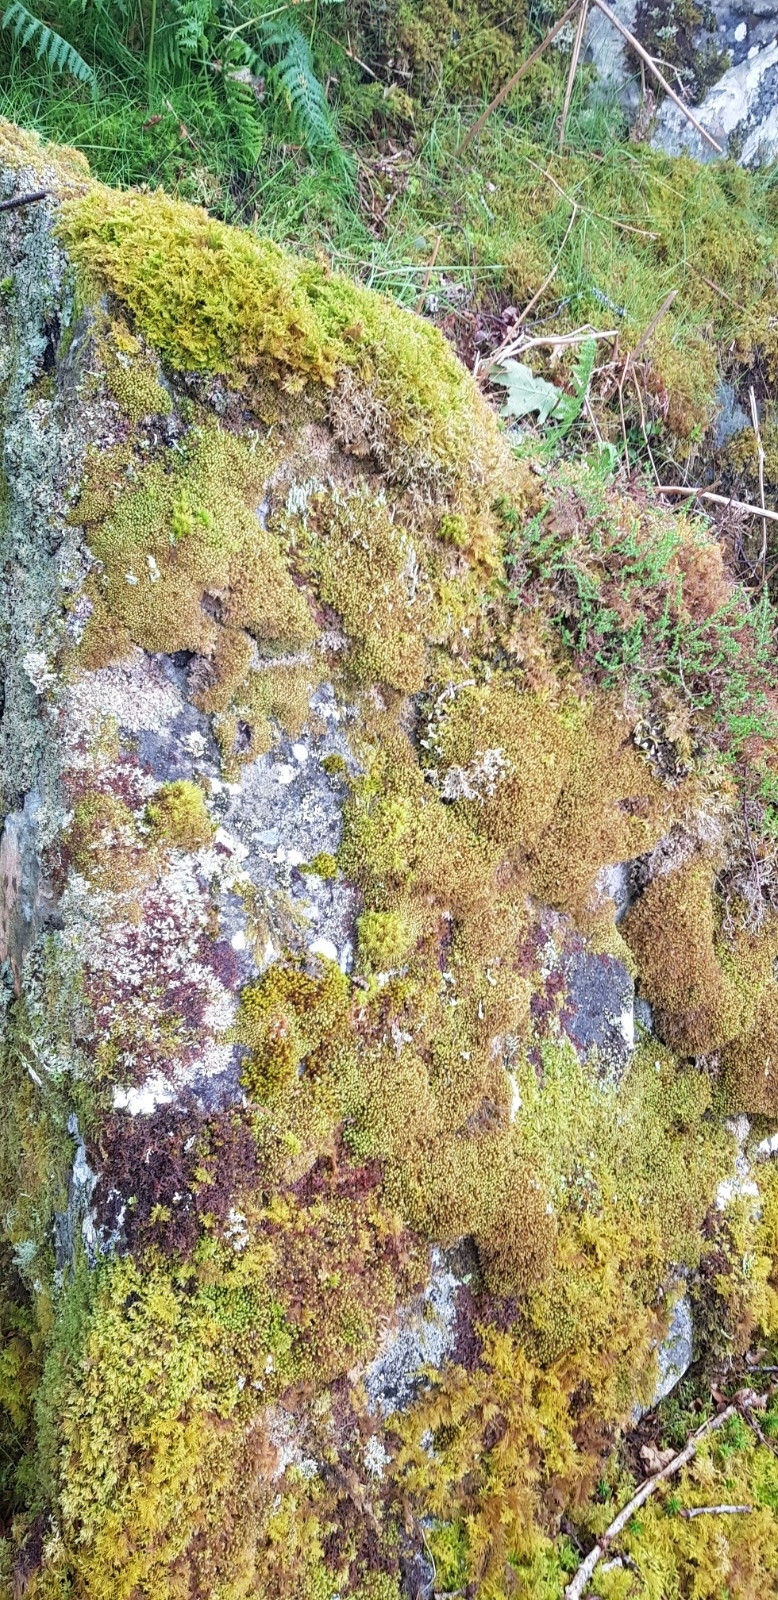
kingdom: Plantae
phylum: Marchantiophyta
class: Jungermanniopsida
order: Jungermanniales
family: Scapaniaceae
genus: Scapania
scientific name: Scapania gracilis
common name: Western earwort
